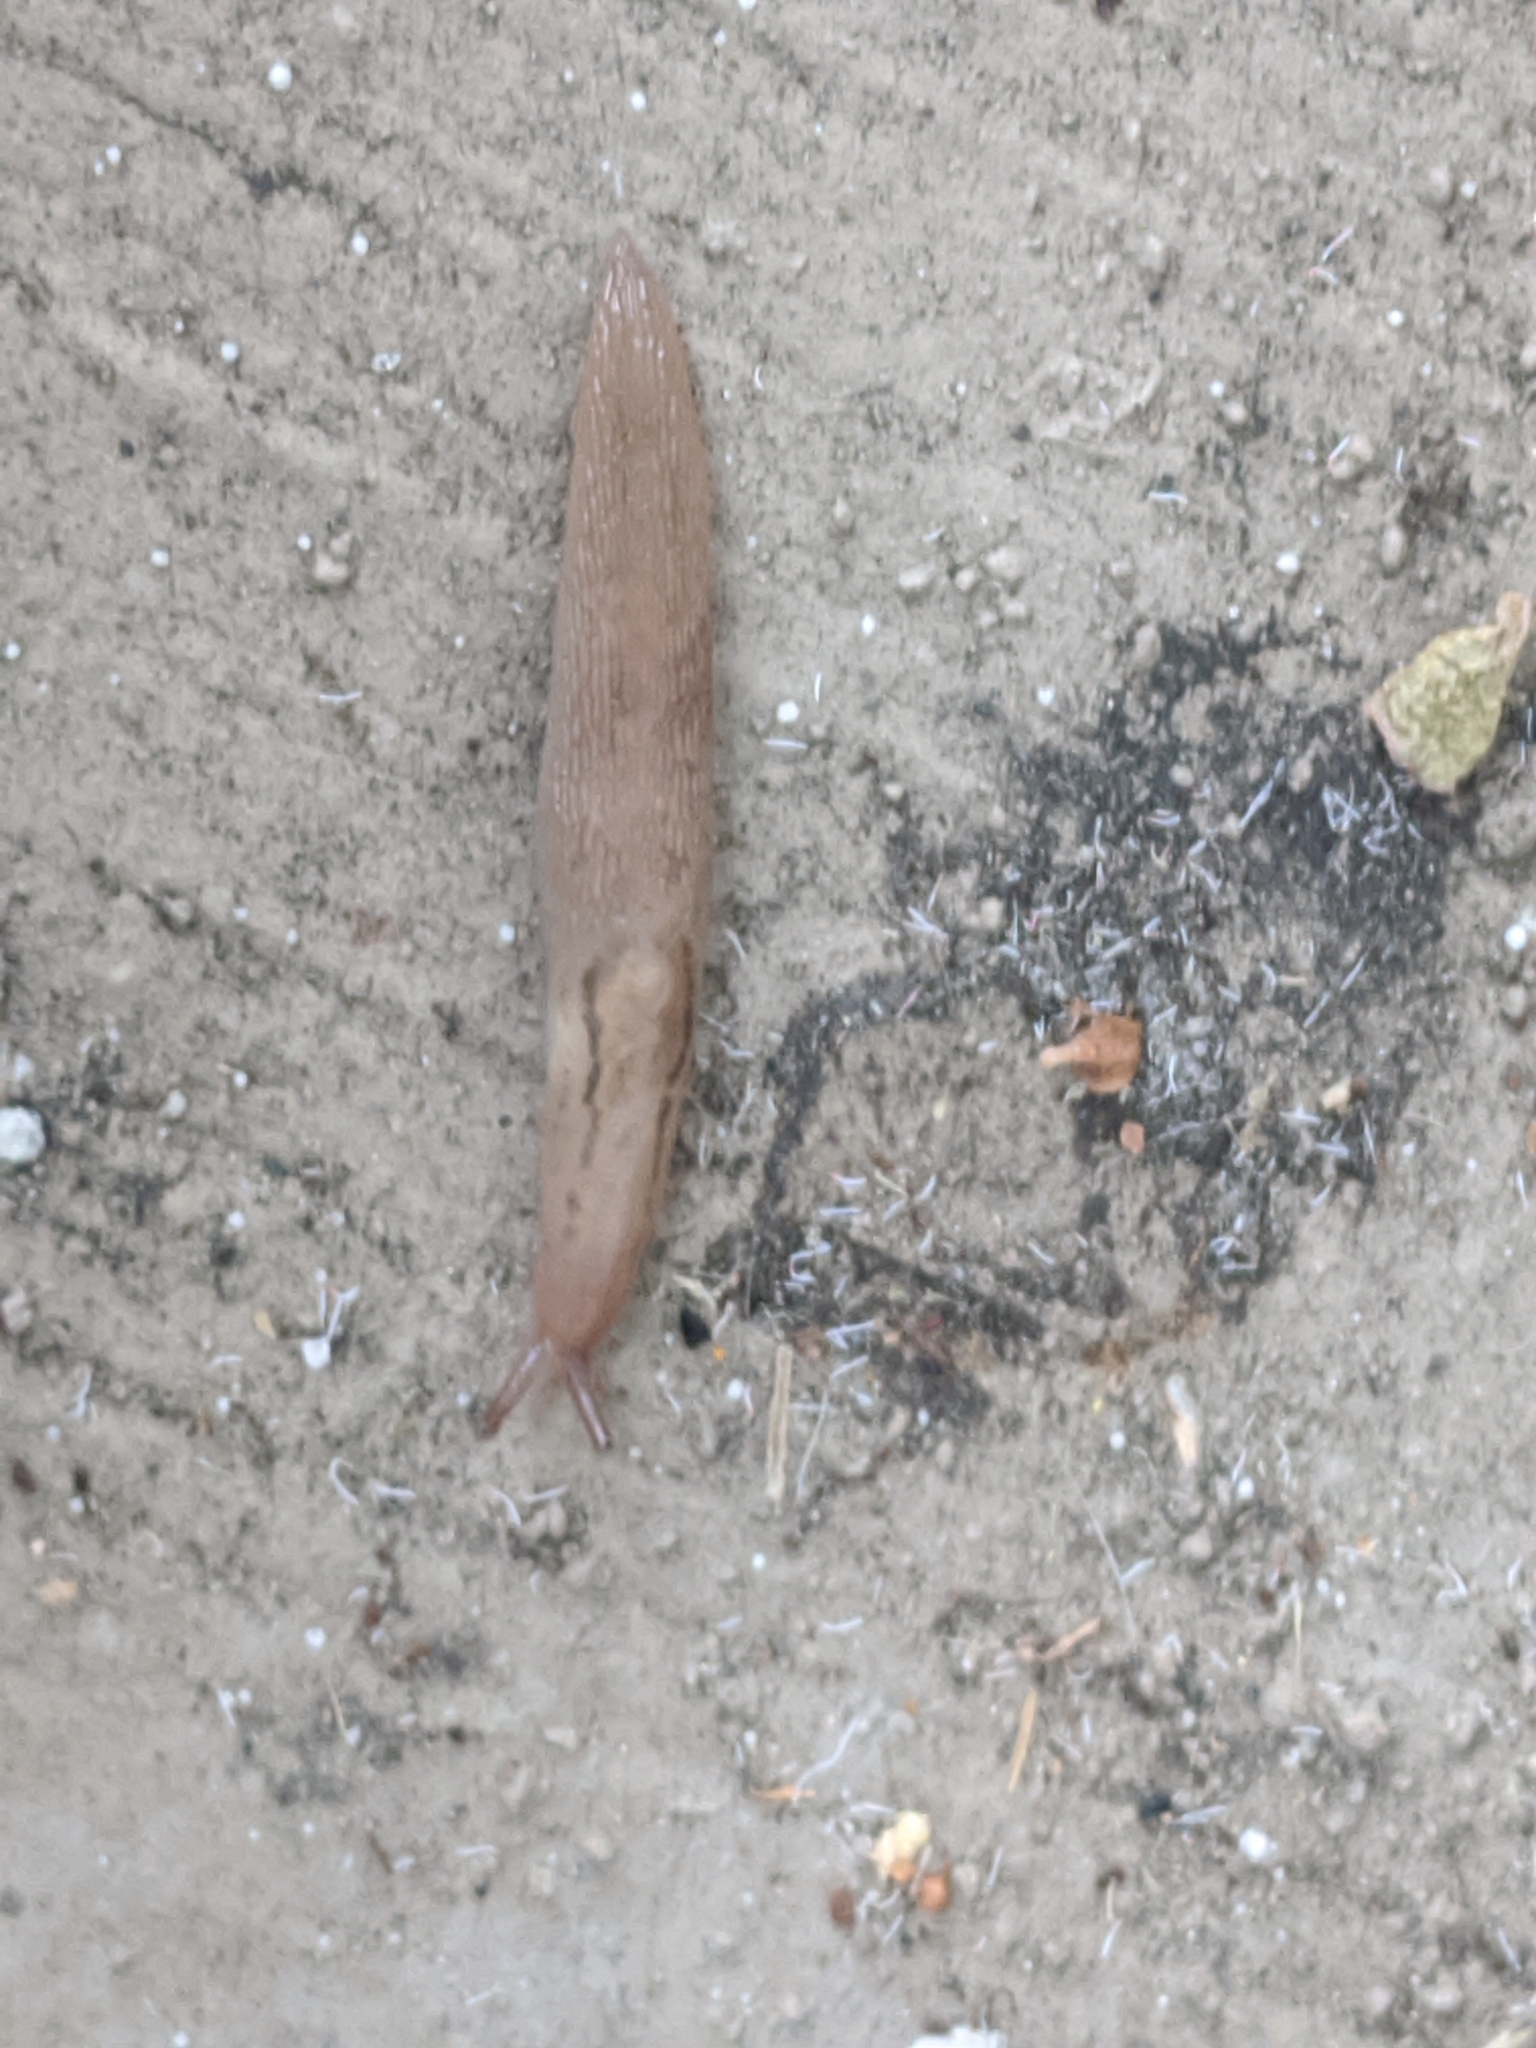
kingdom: Animalia
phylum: Mollusca
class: Gastropoda
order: Stylommatophora
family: Limacidae
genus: Ambigolimax
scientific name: Ambigolimax
